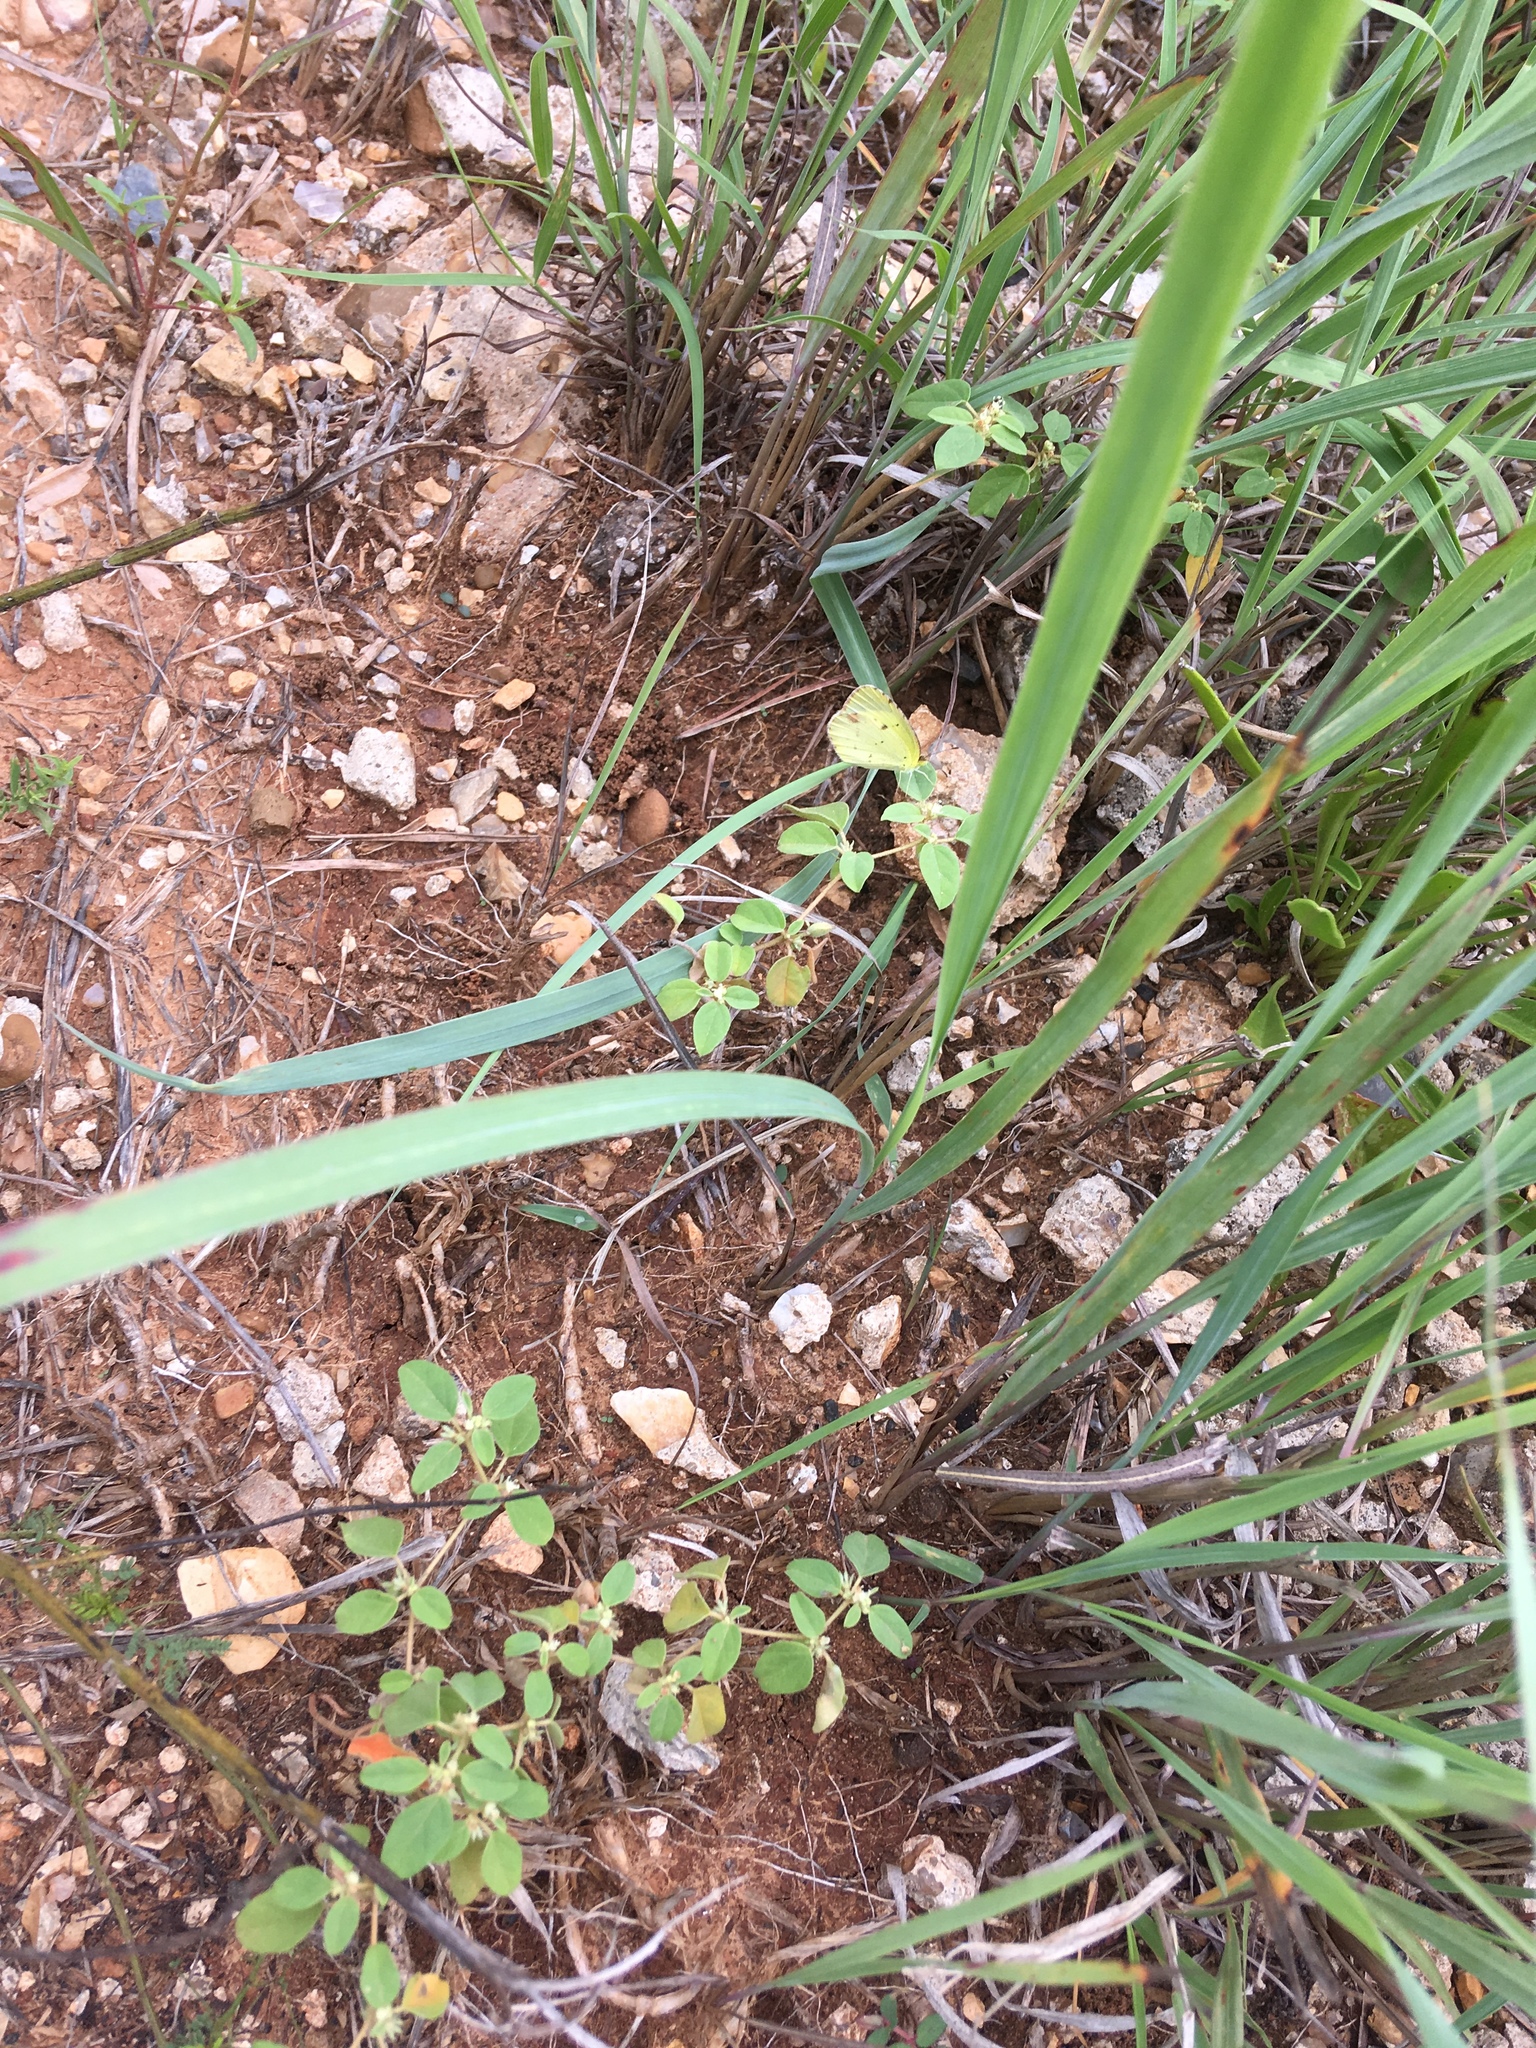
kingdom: Animalia
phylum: Arthropoda
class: Insecta
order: Lepidoptera
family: Pieridae
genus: Pyrisitia
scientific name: Pyrisitia lisa
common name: Little yellow
